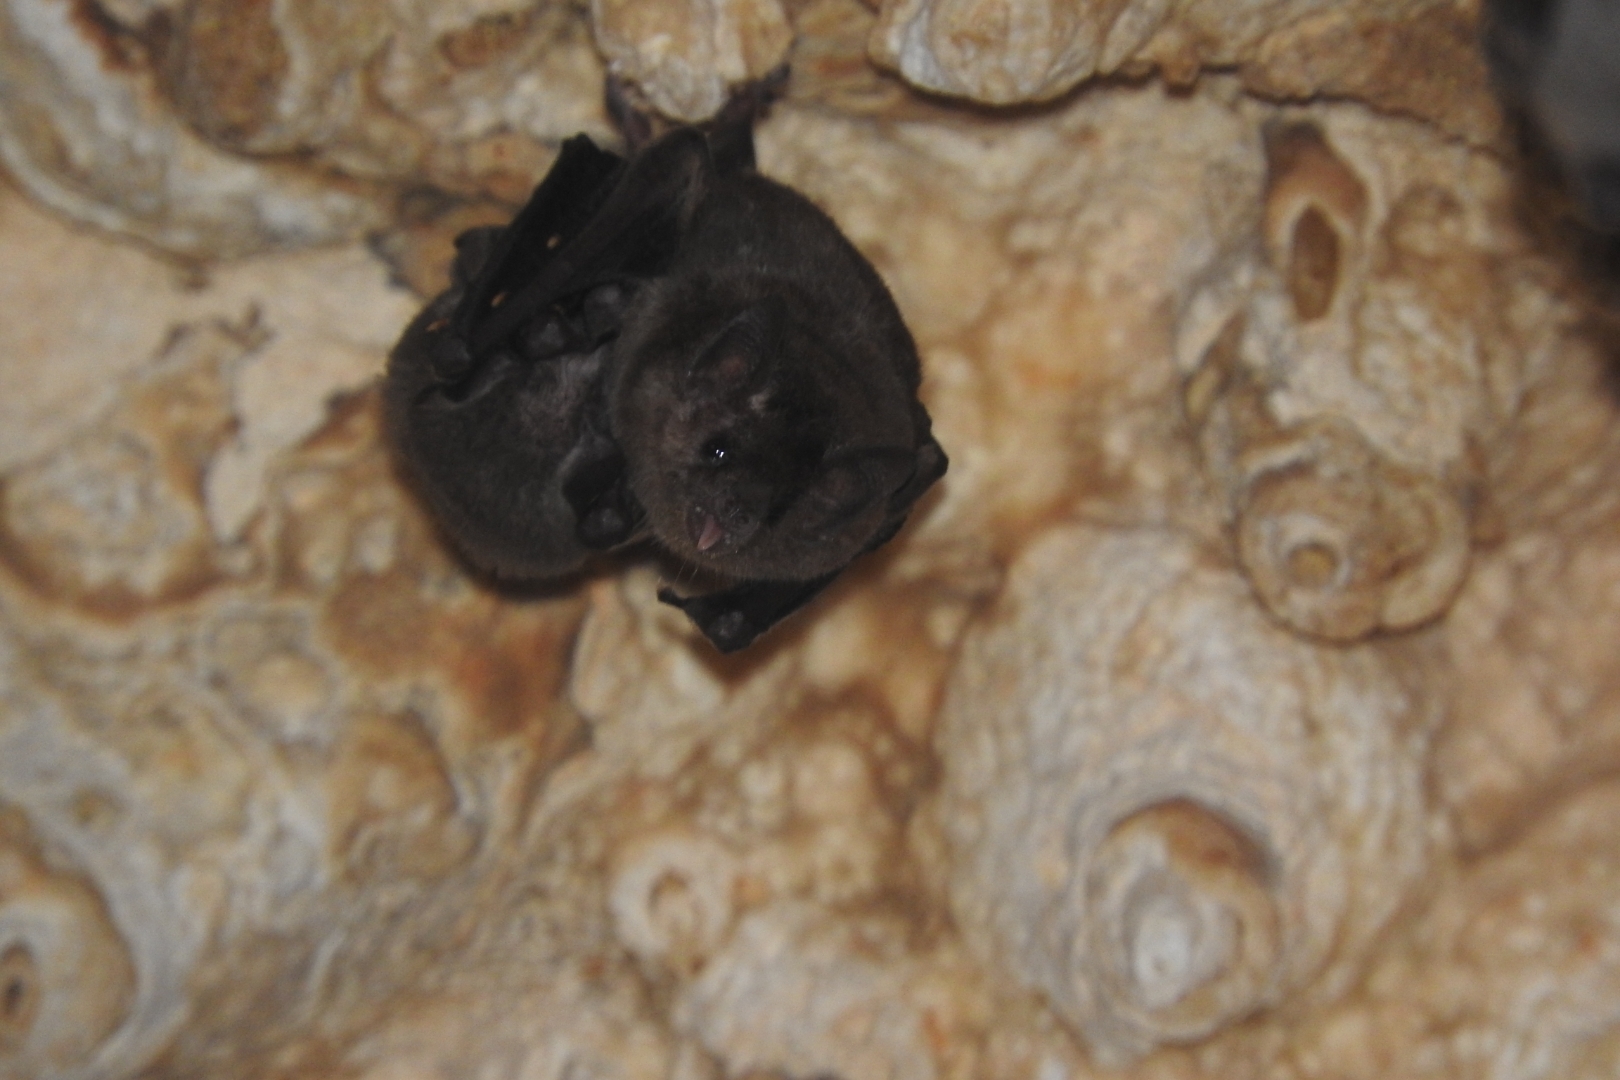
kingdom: Animalia
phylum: Chordata
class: Mammalia
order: Chiroptera
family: Phyllostomidae
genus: Glossophaga
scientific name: Glossophaga soricina
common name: Pallas's long-tongued bat
